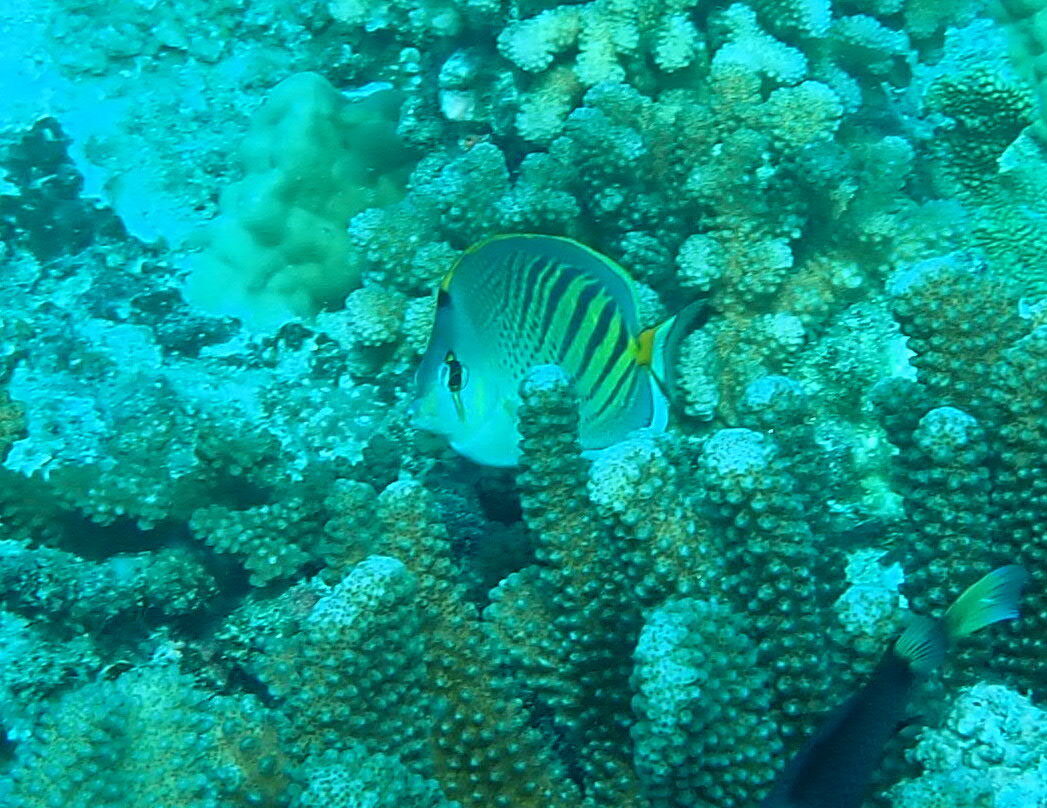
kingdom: Animalia
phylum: Chordata
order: Perciformes
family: Chaetodontidae
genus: Chaetodon
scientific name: Chaetodon pelewensis
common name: Dot-and-dash butterflyfish
